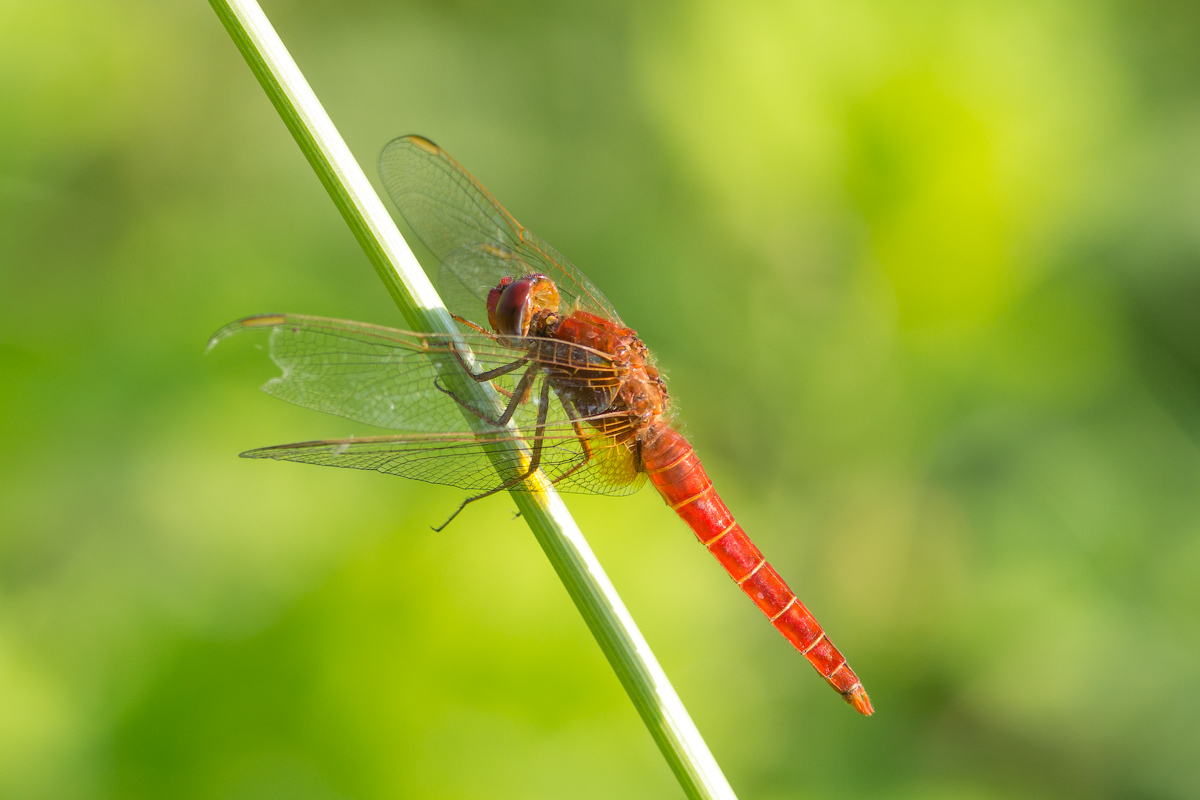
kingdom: Animalia
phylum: Arthropoda
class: Insecta
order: Odonata
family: Libellulidae
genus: Crocothemis
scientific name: Crocothemis erythraea
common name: Scarlet dragonfly
